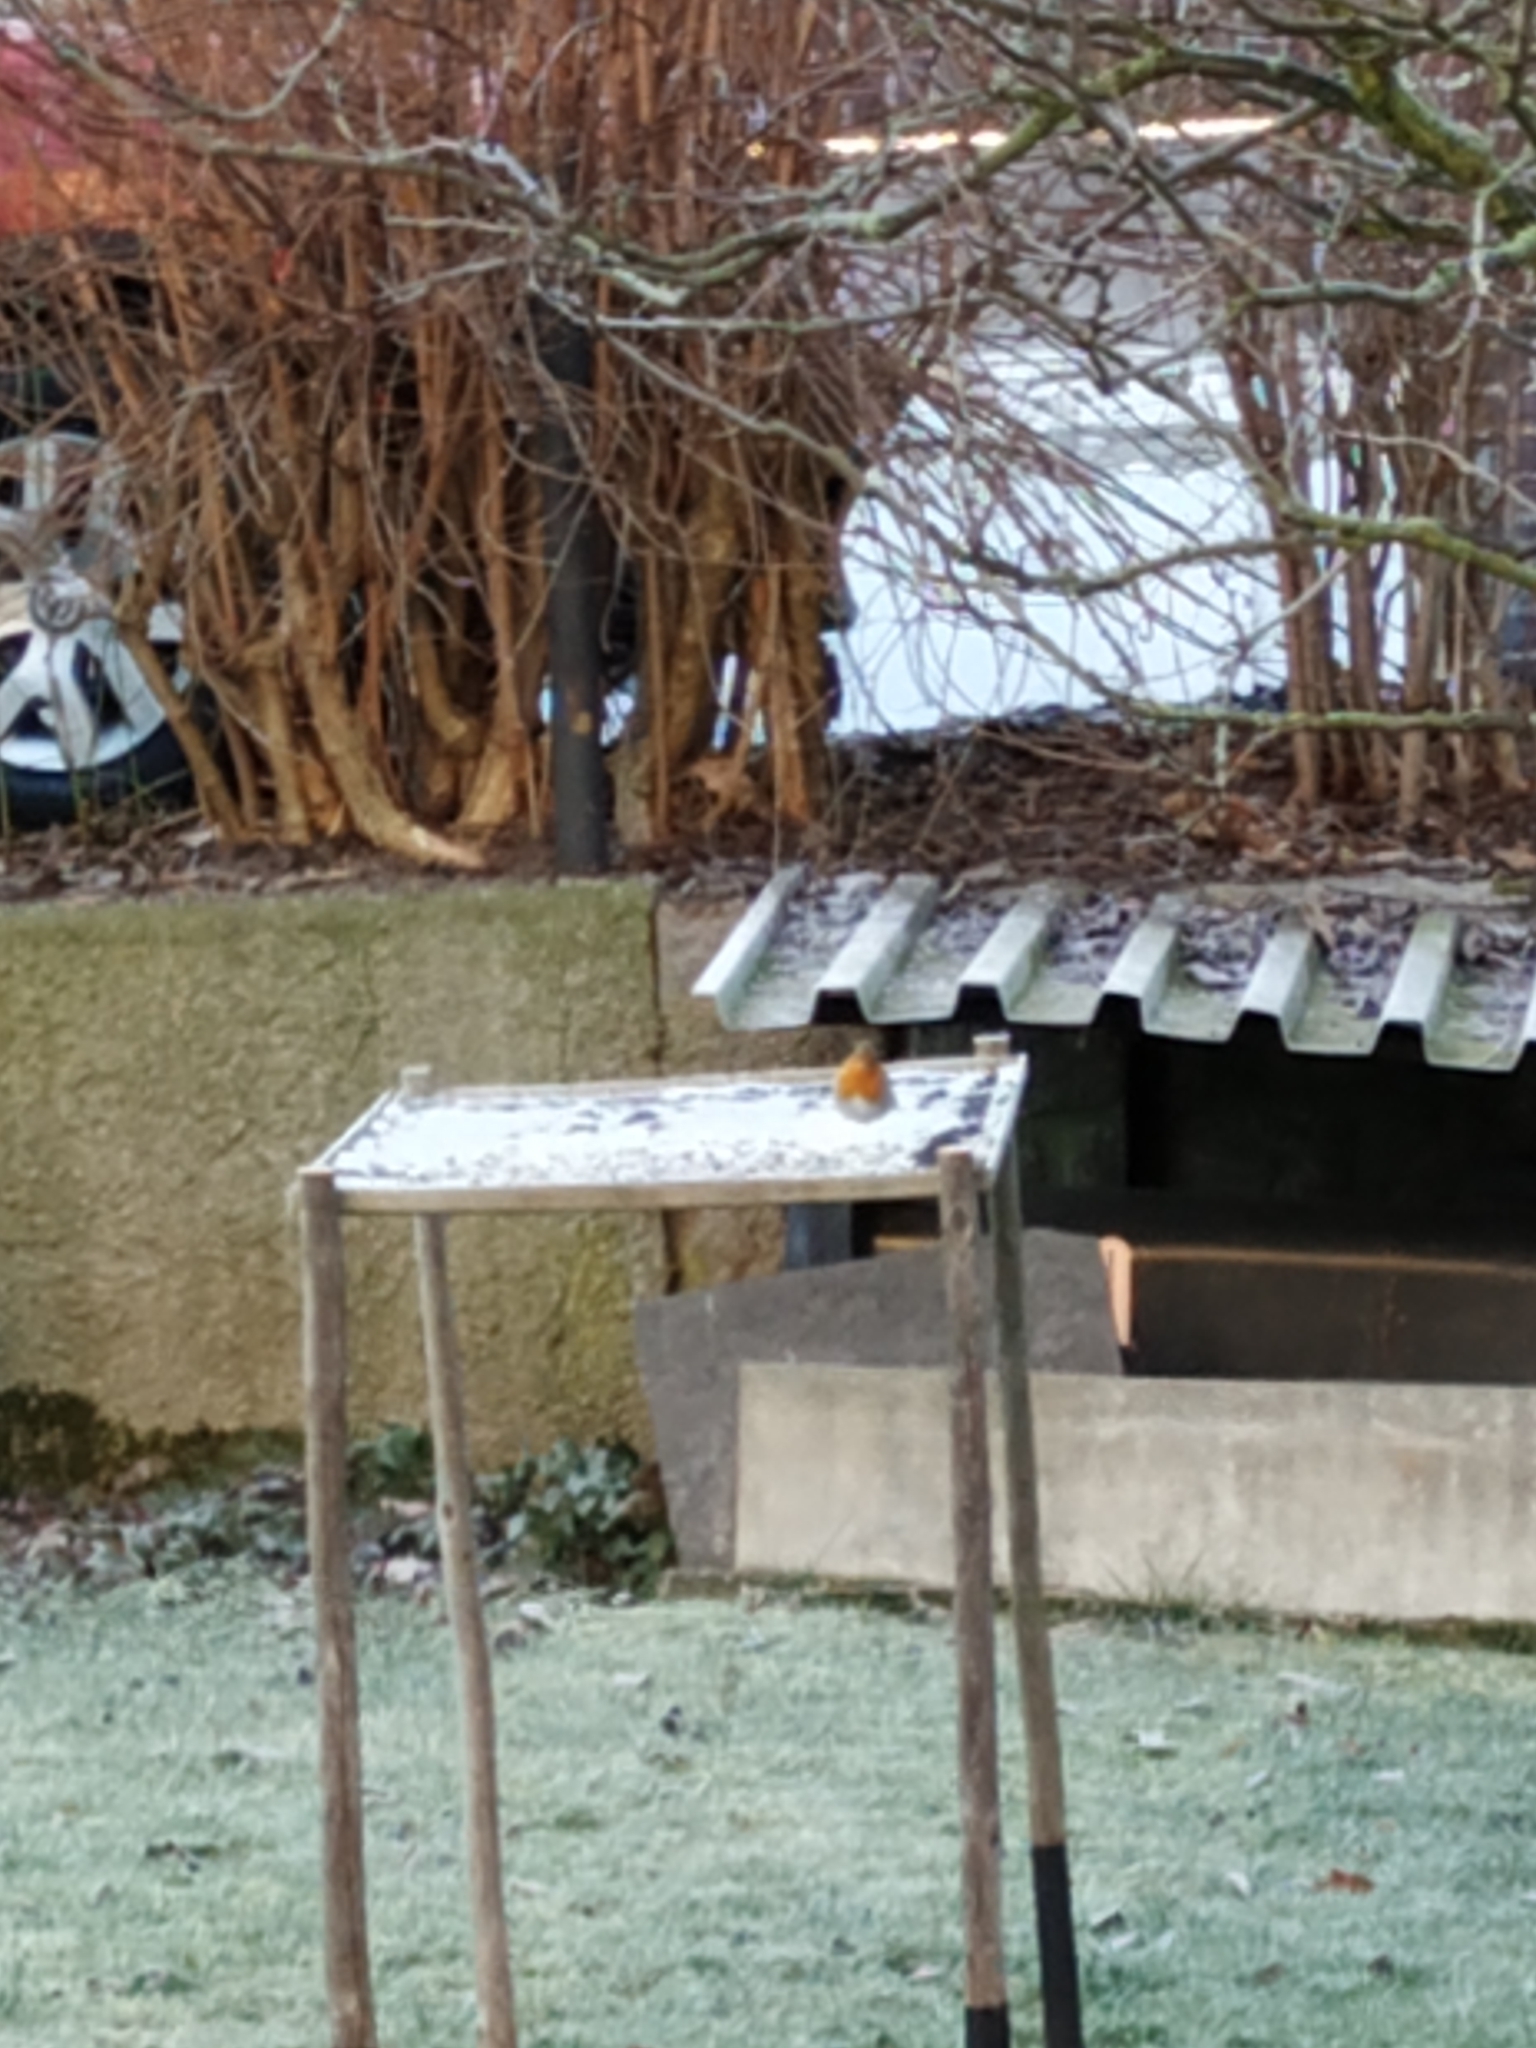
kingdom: Animalia
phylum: Chordata
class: Aves
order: Passeriformes
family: Muscicapidae
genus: Erithacus
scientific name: Erithacus rubecula
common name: European robin
